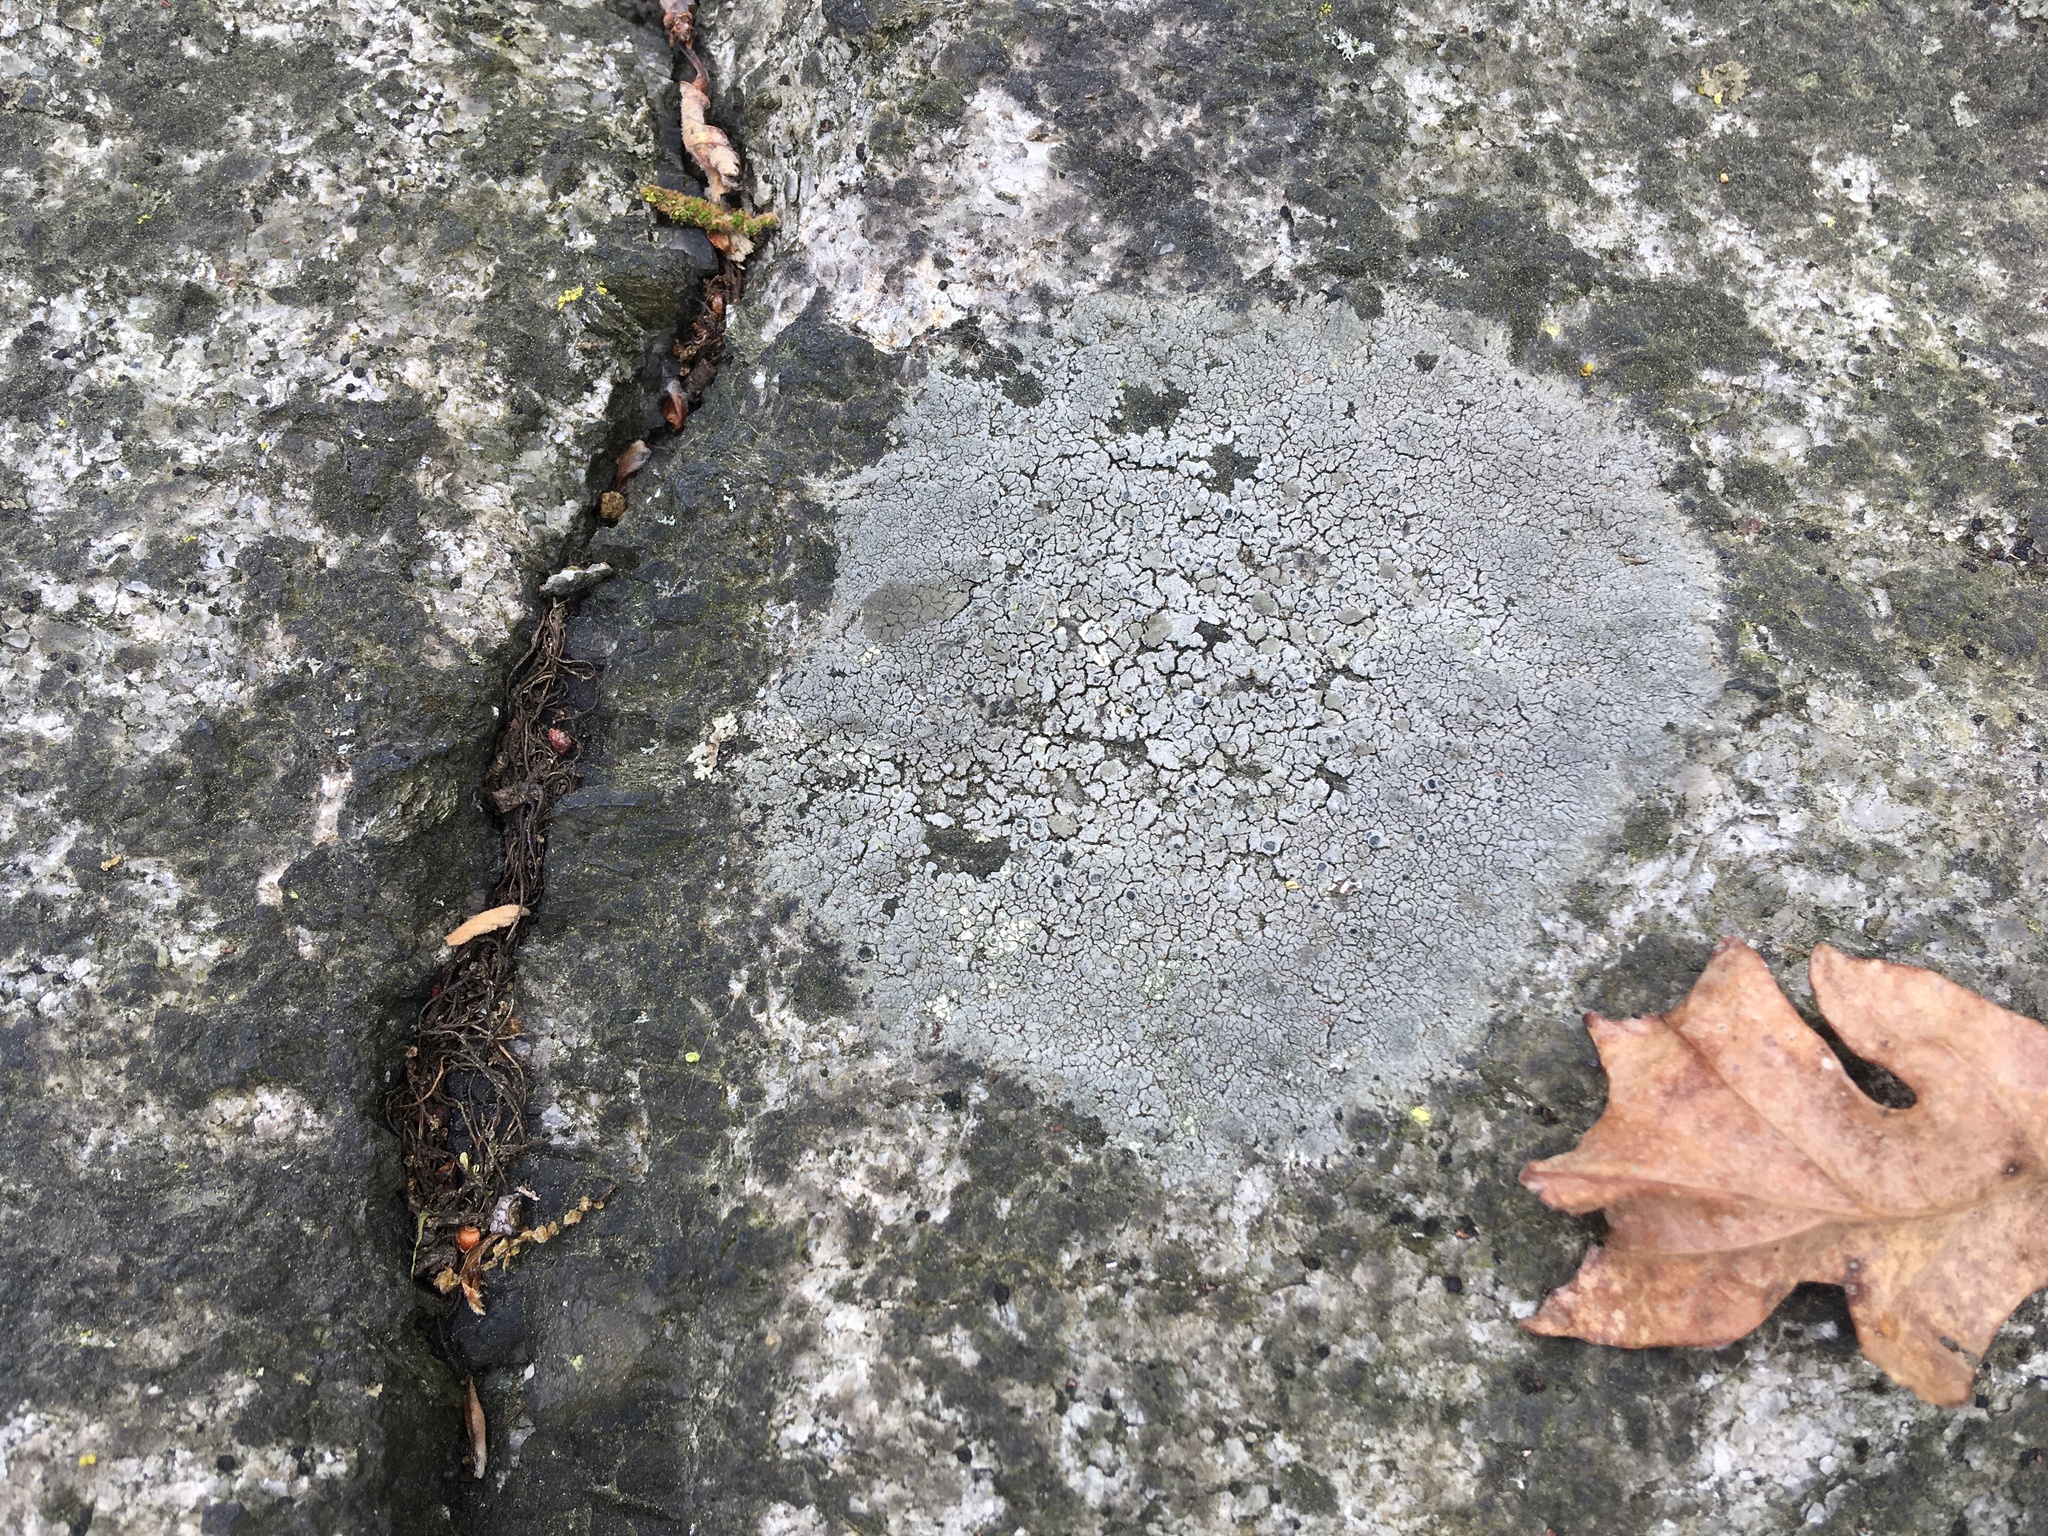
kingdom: Fungi
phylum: Ascomycota
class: Lecanoromycetes
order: Lecideales
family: Lecideaceae
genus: Porpidia
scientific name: Porpidia albocaerulescens
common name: Smokey-eyed boulder lichen
